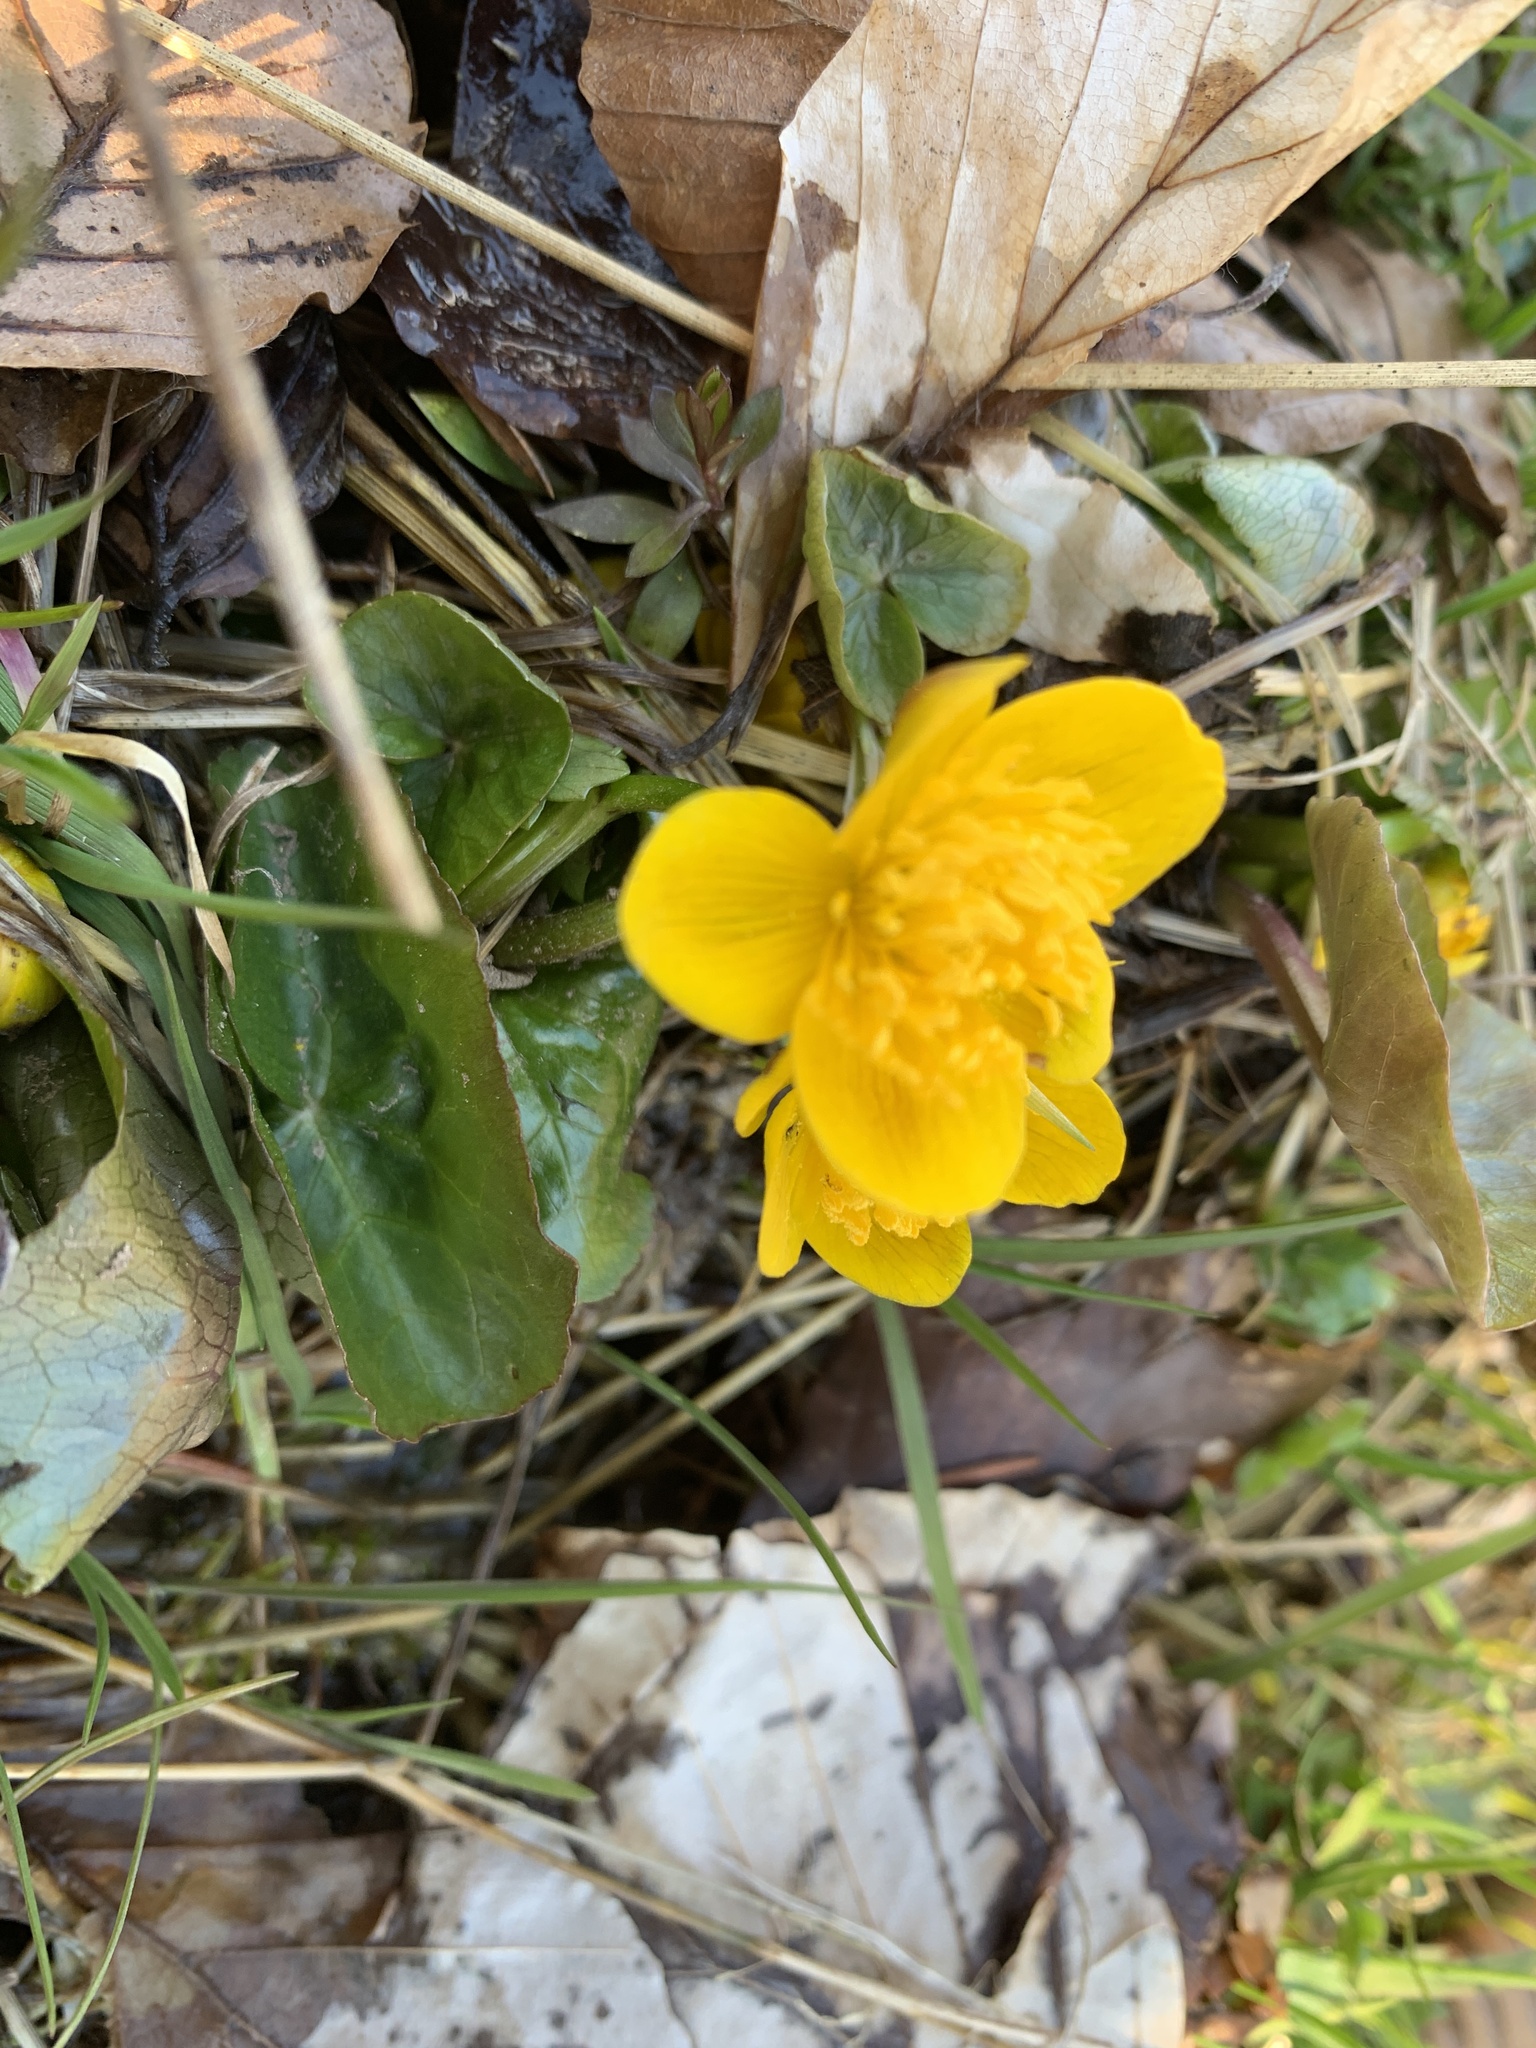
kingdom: Plantae
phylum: Tracheophyta
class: Magnoliopsida
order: Ranunculales
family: Ranunculaceae
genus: Caltha
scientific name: Caltha palustris
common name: Marsh marigold
